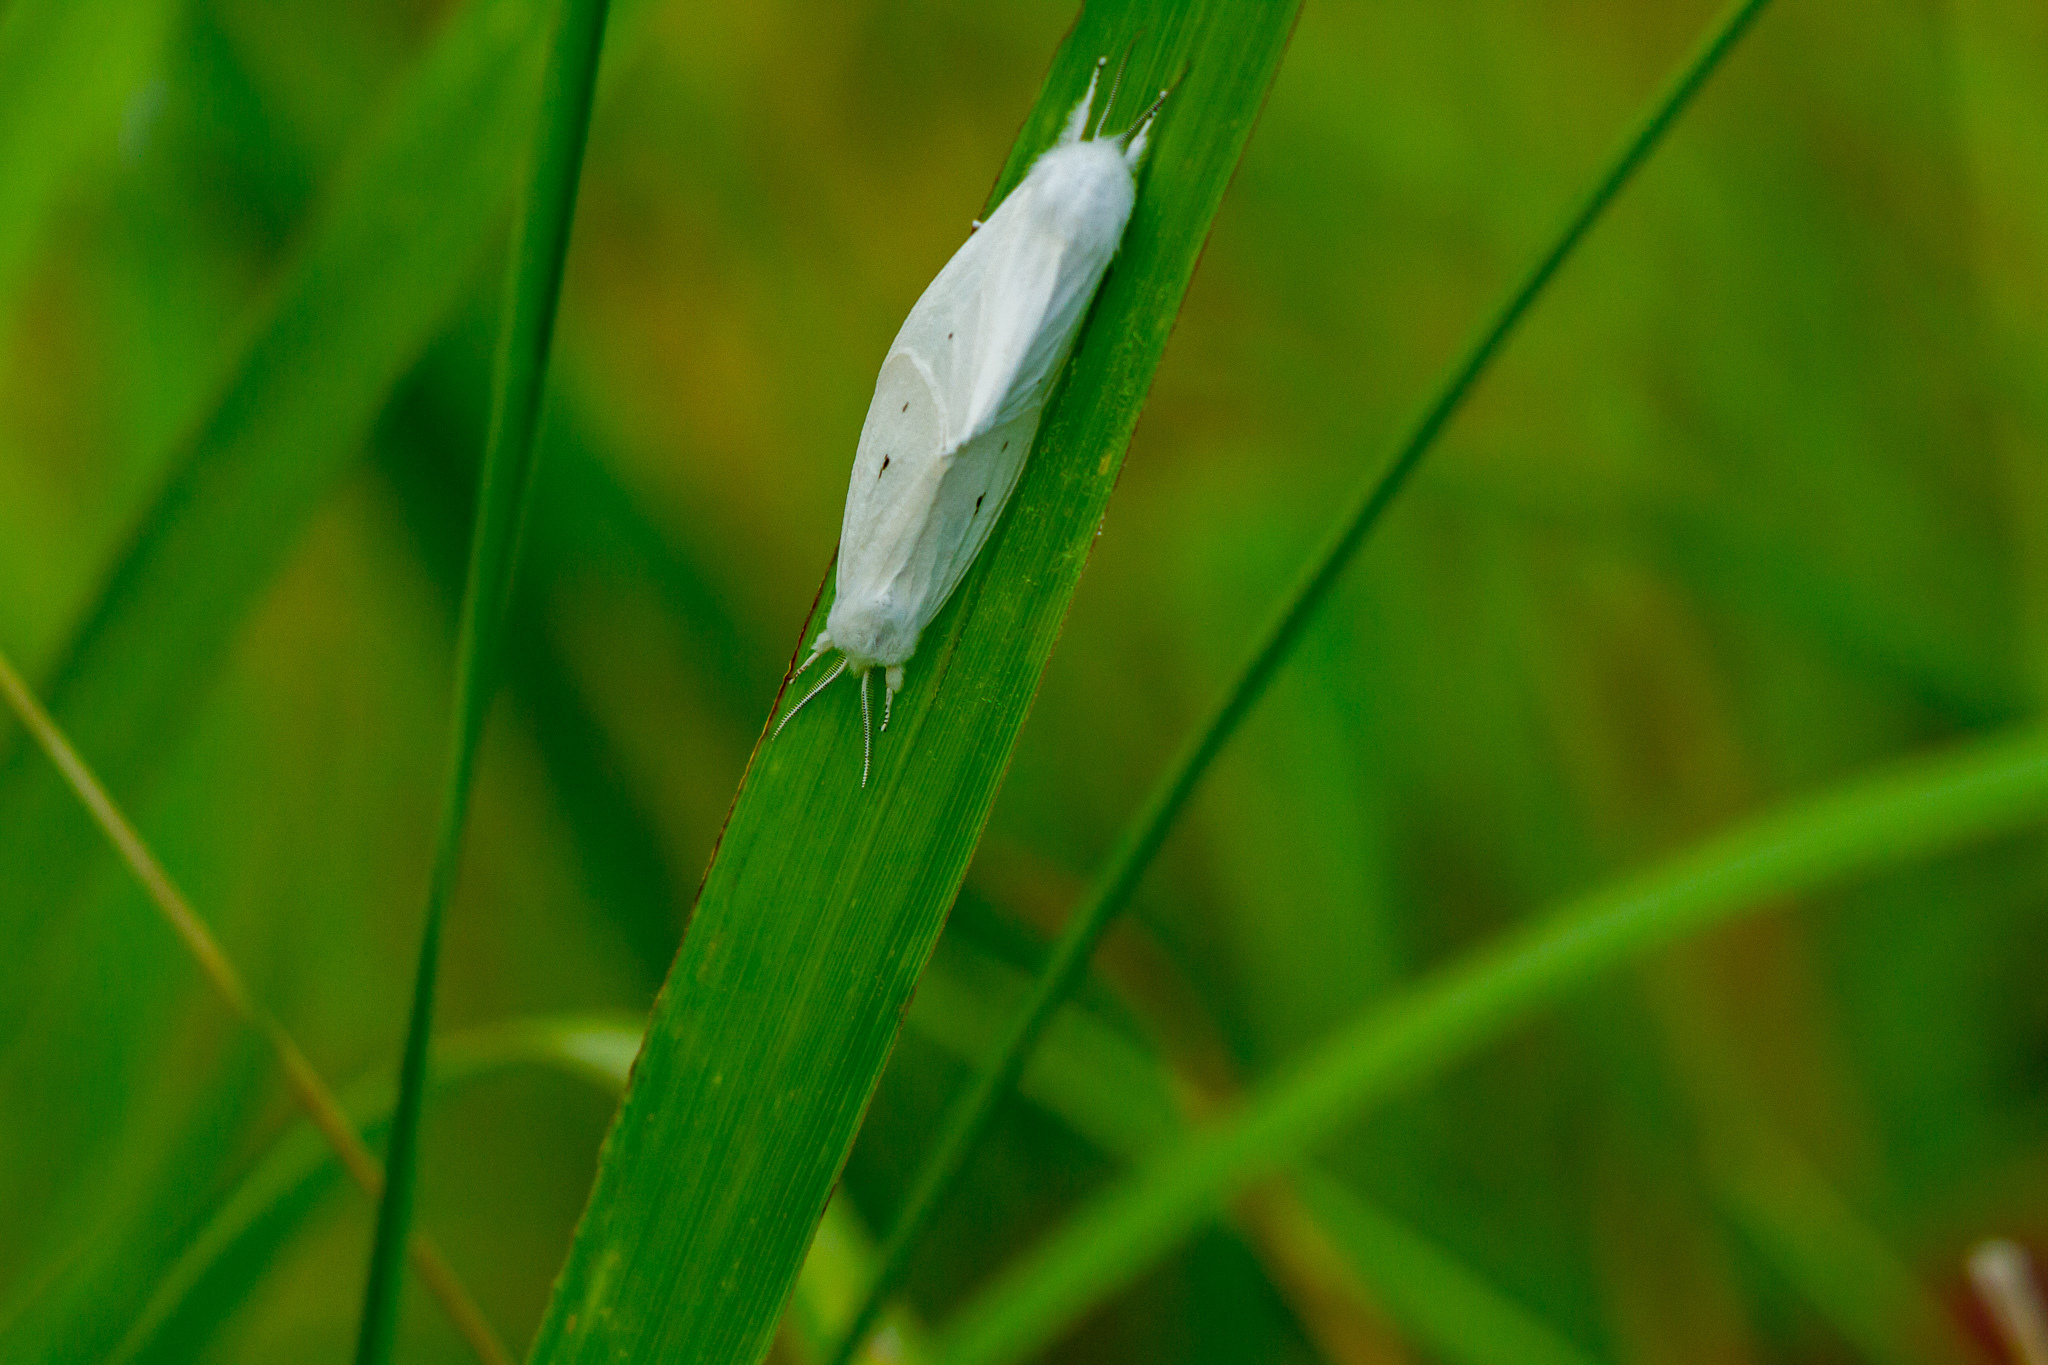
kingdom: Animalia
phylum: Arthropoda
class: Insecta
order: Lepidoptera
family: Erebidae
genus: Spilosoma
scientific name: Spilosoma virginica
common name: Virginia tiger moth
